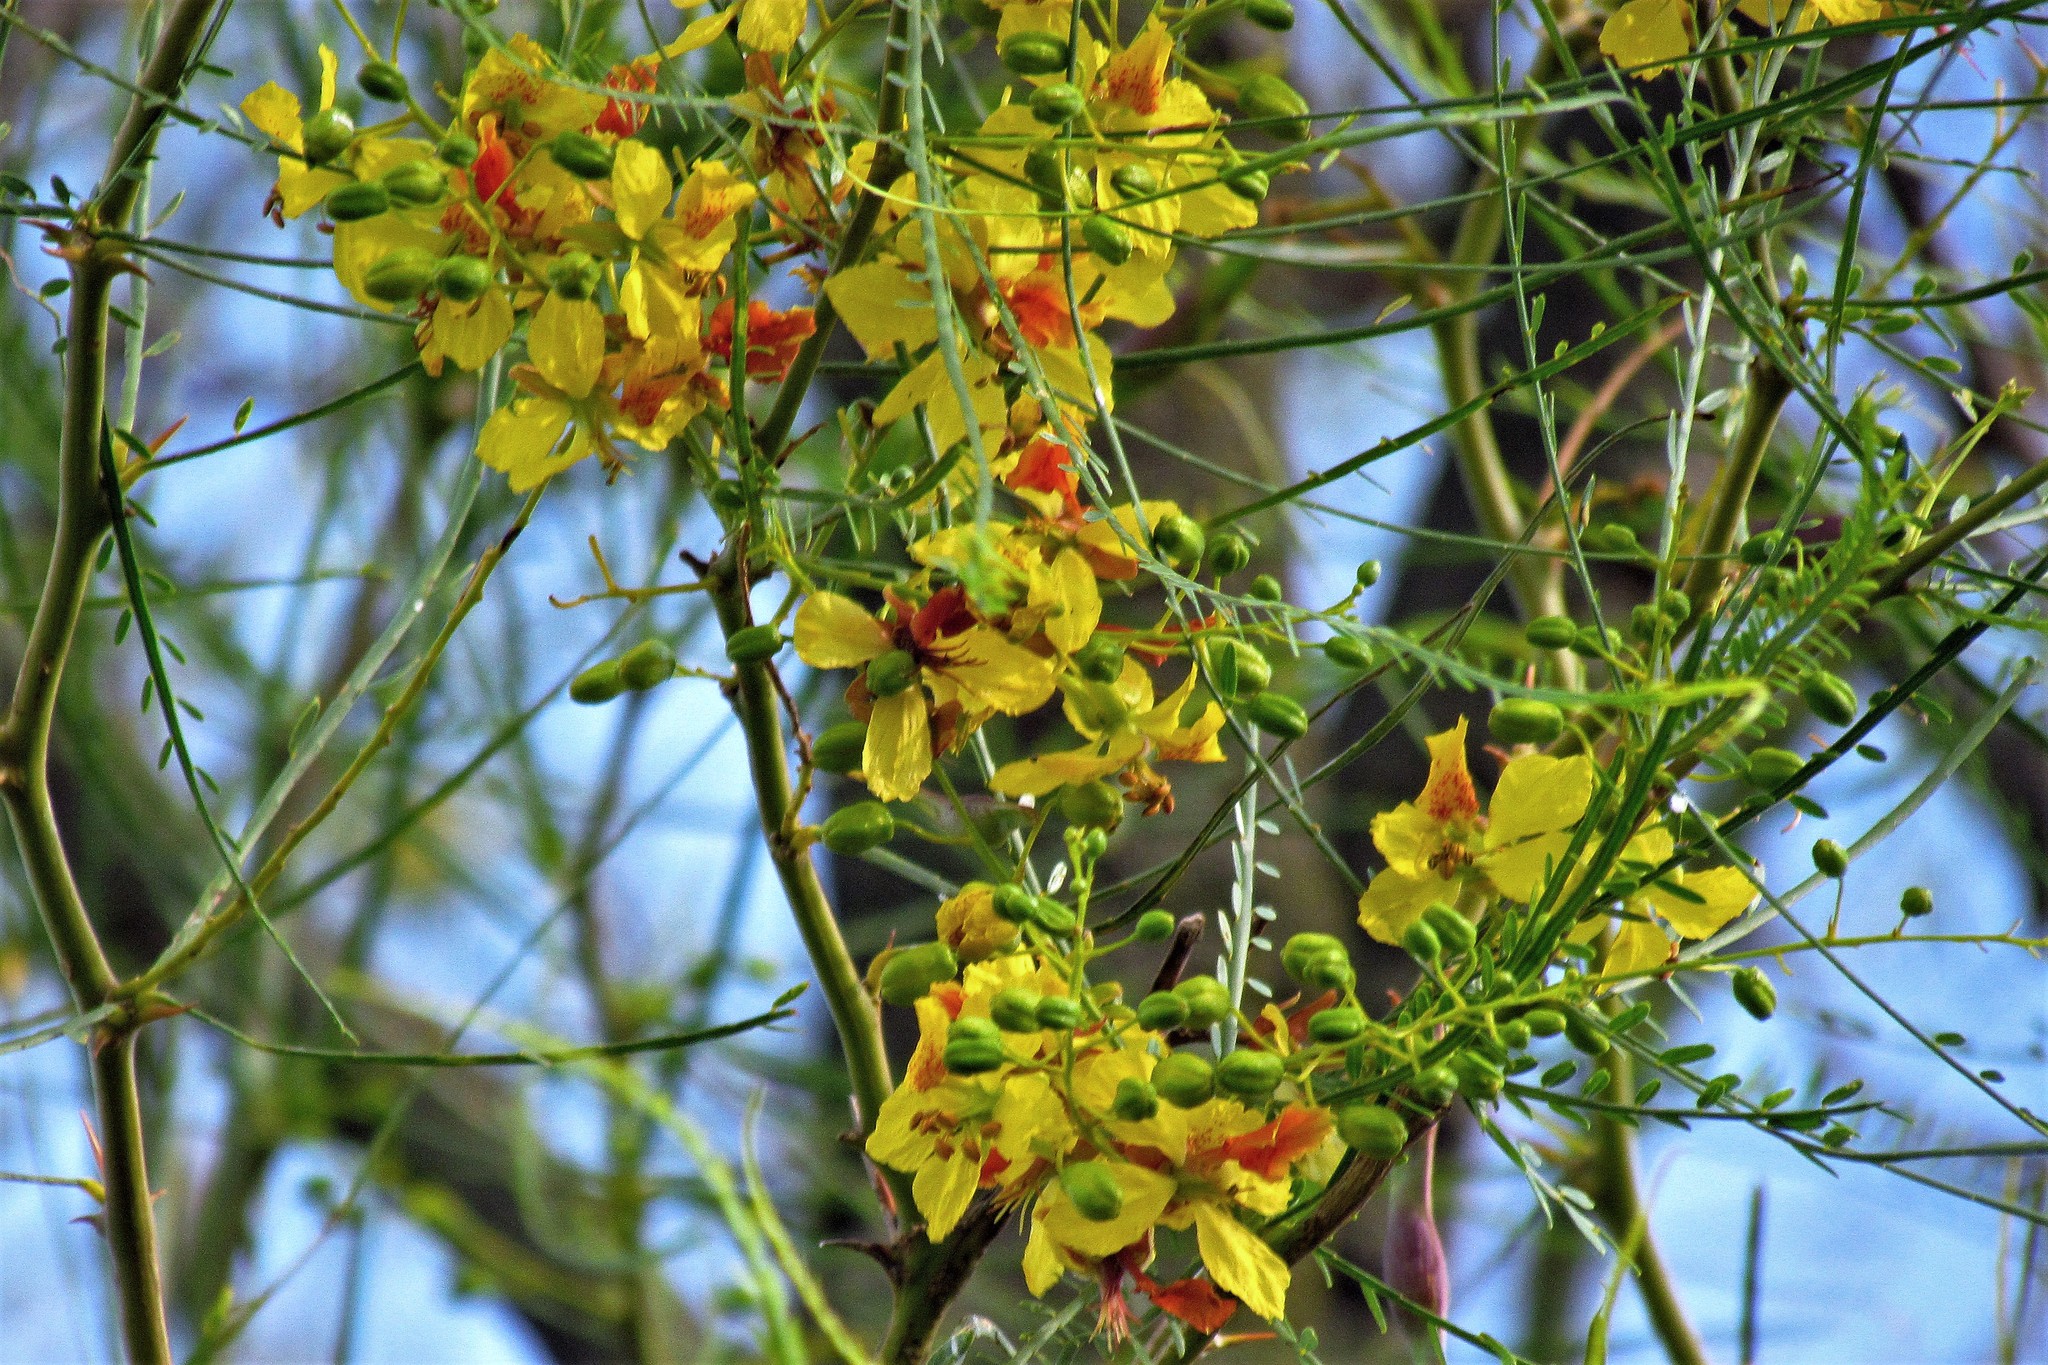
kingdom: Plantae
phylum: Tracheophyta
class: Magnoliopsida
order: Fabales
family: Fabaceae
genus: Parkinsonia
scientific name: Parkinsonia aculeata
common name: Jerusalem thorn
